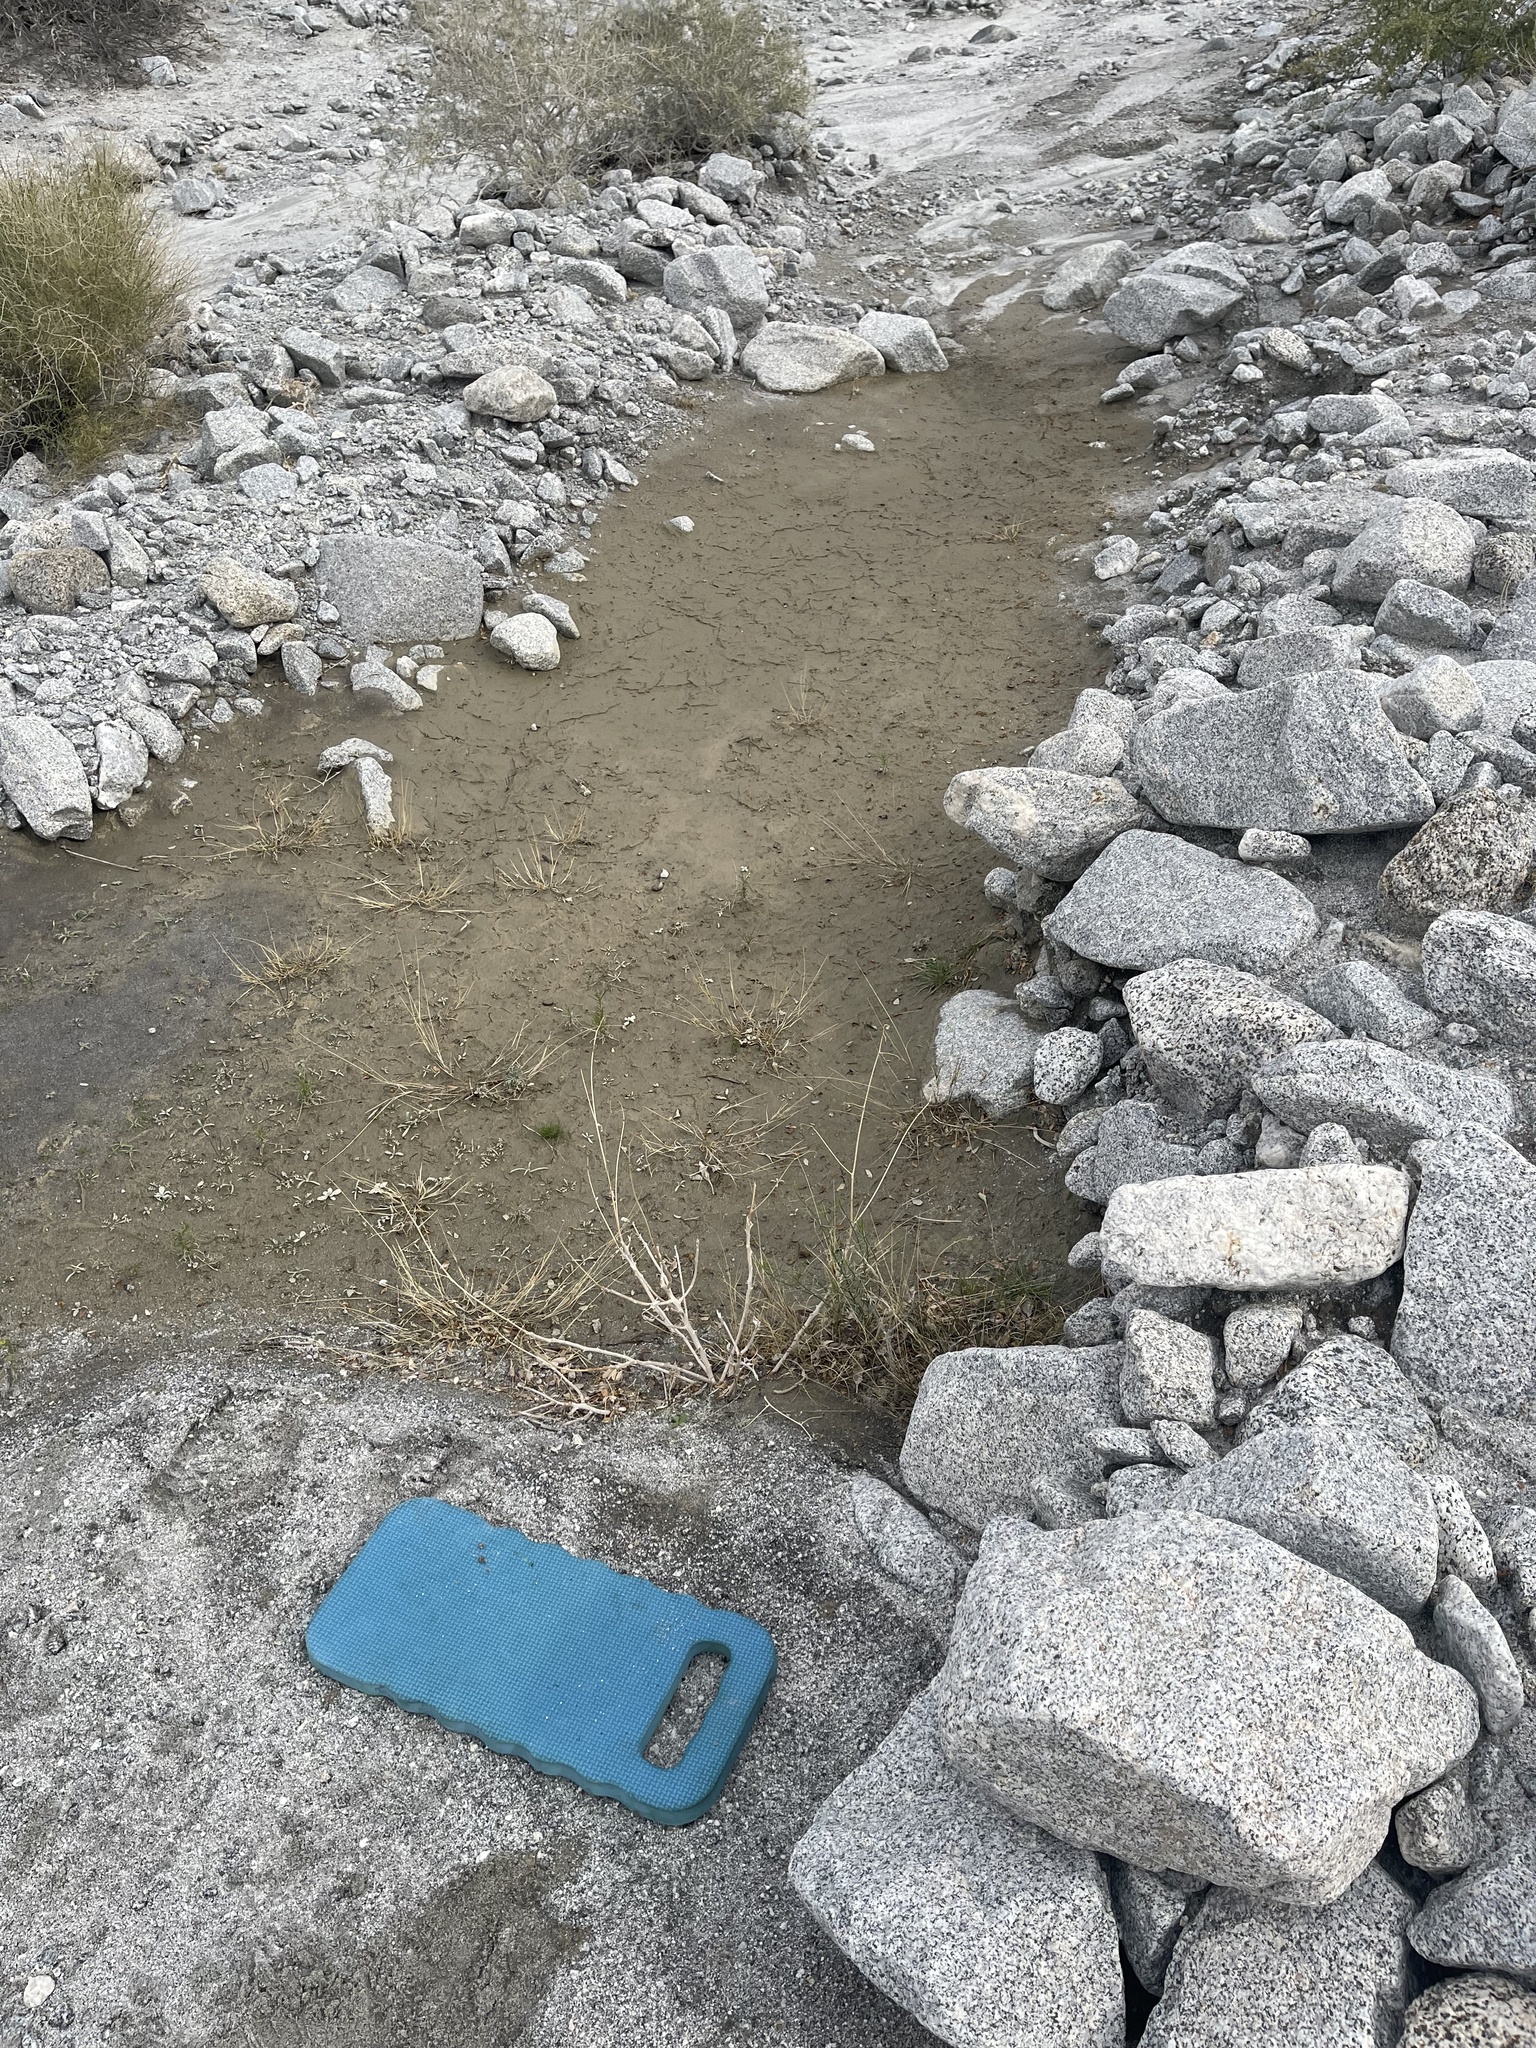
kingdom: Plantae
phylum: Tracheophyta
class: Magnoliopsida
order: Brassicales
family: Brassicaceae
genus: Streptanthus
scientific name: Streptanthus cooperi
